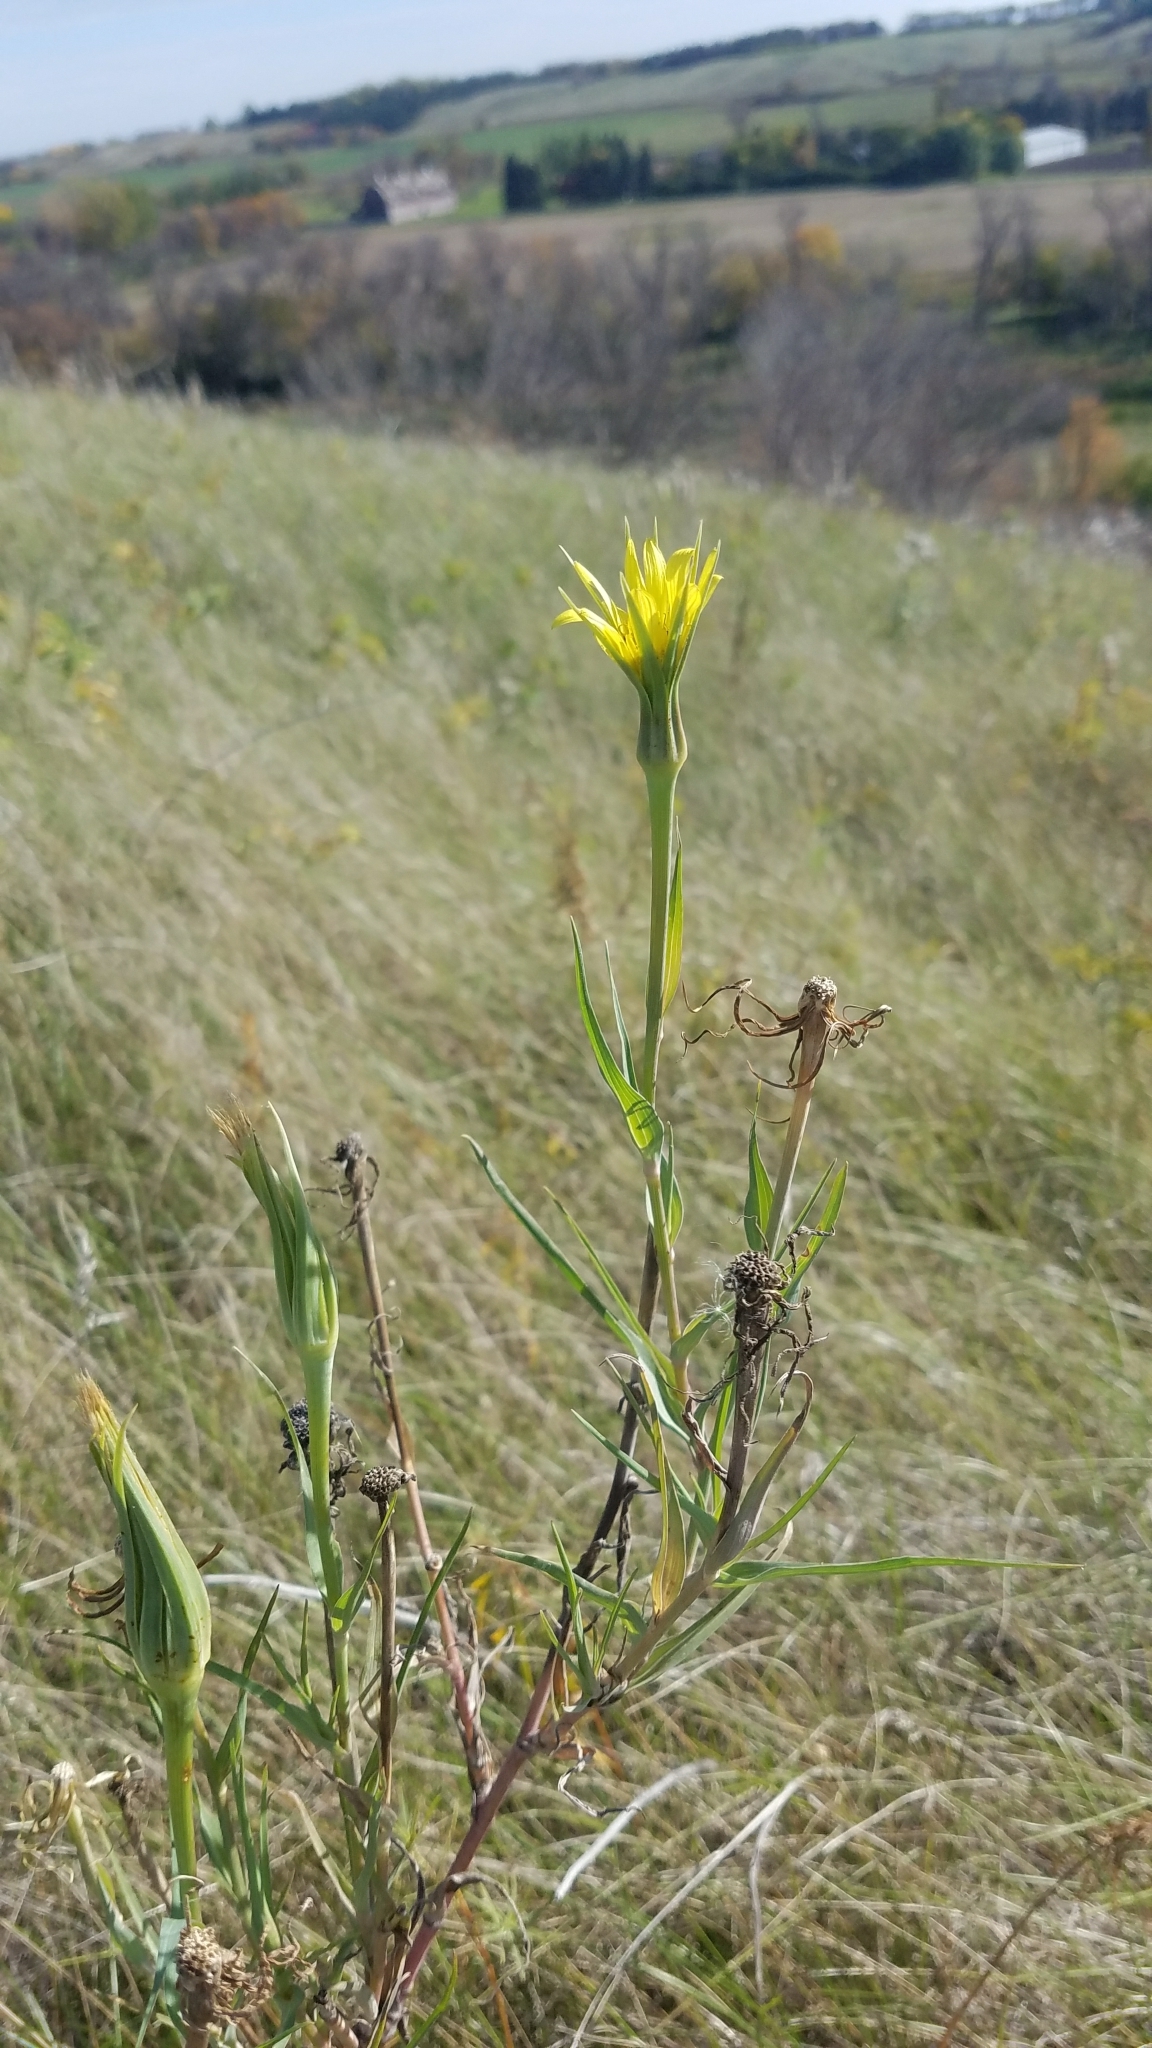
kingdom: Plantae
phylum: Tracheophyta
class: Magnoliopsida
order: Asterales
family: Asteraceae
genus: Tragopogon
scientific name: Tragopogon dubius
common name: Yellow salsify
